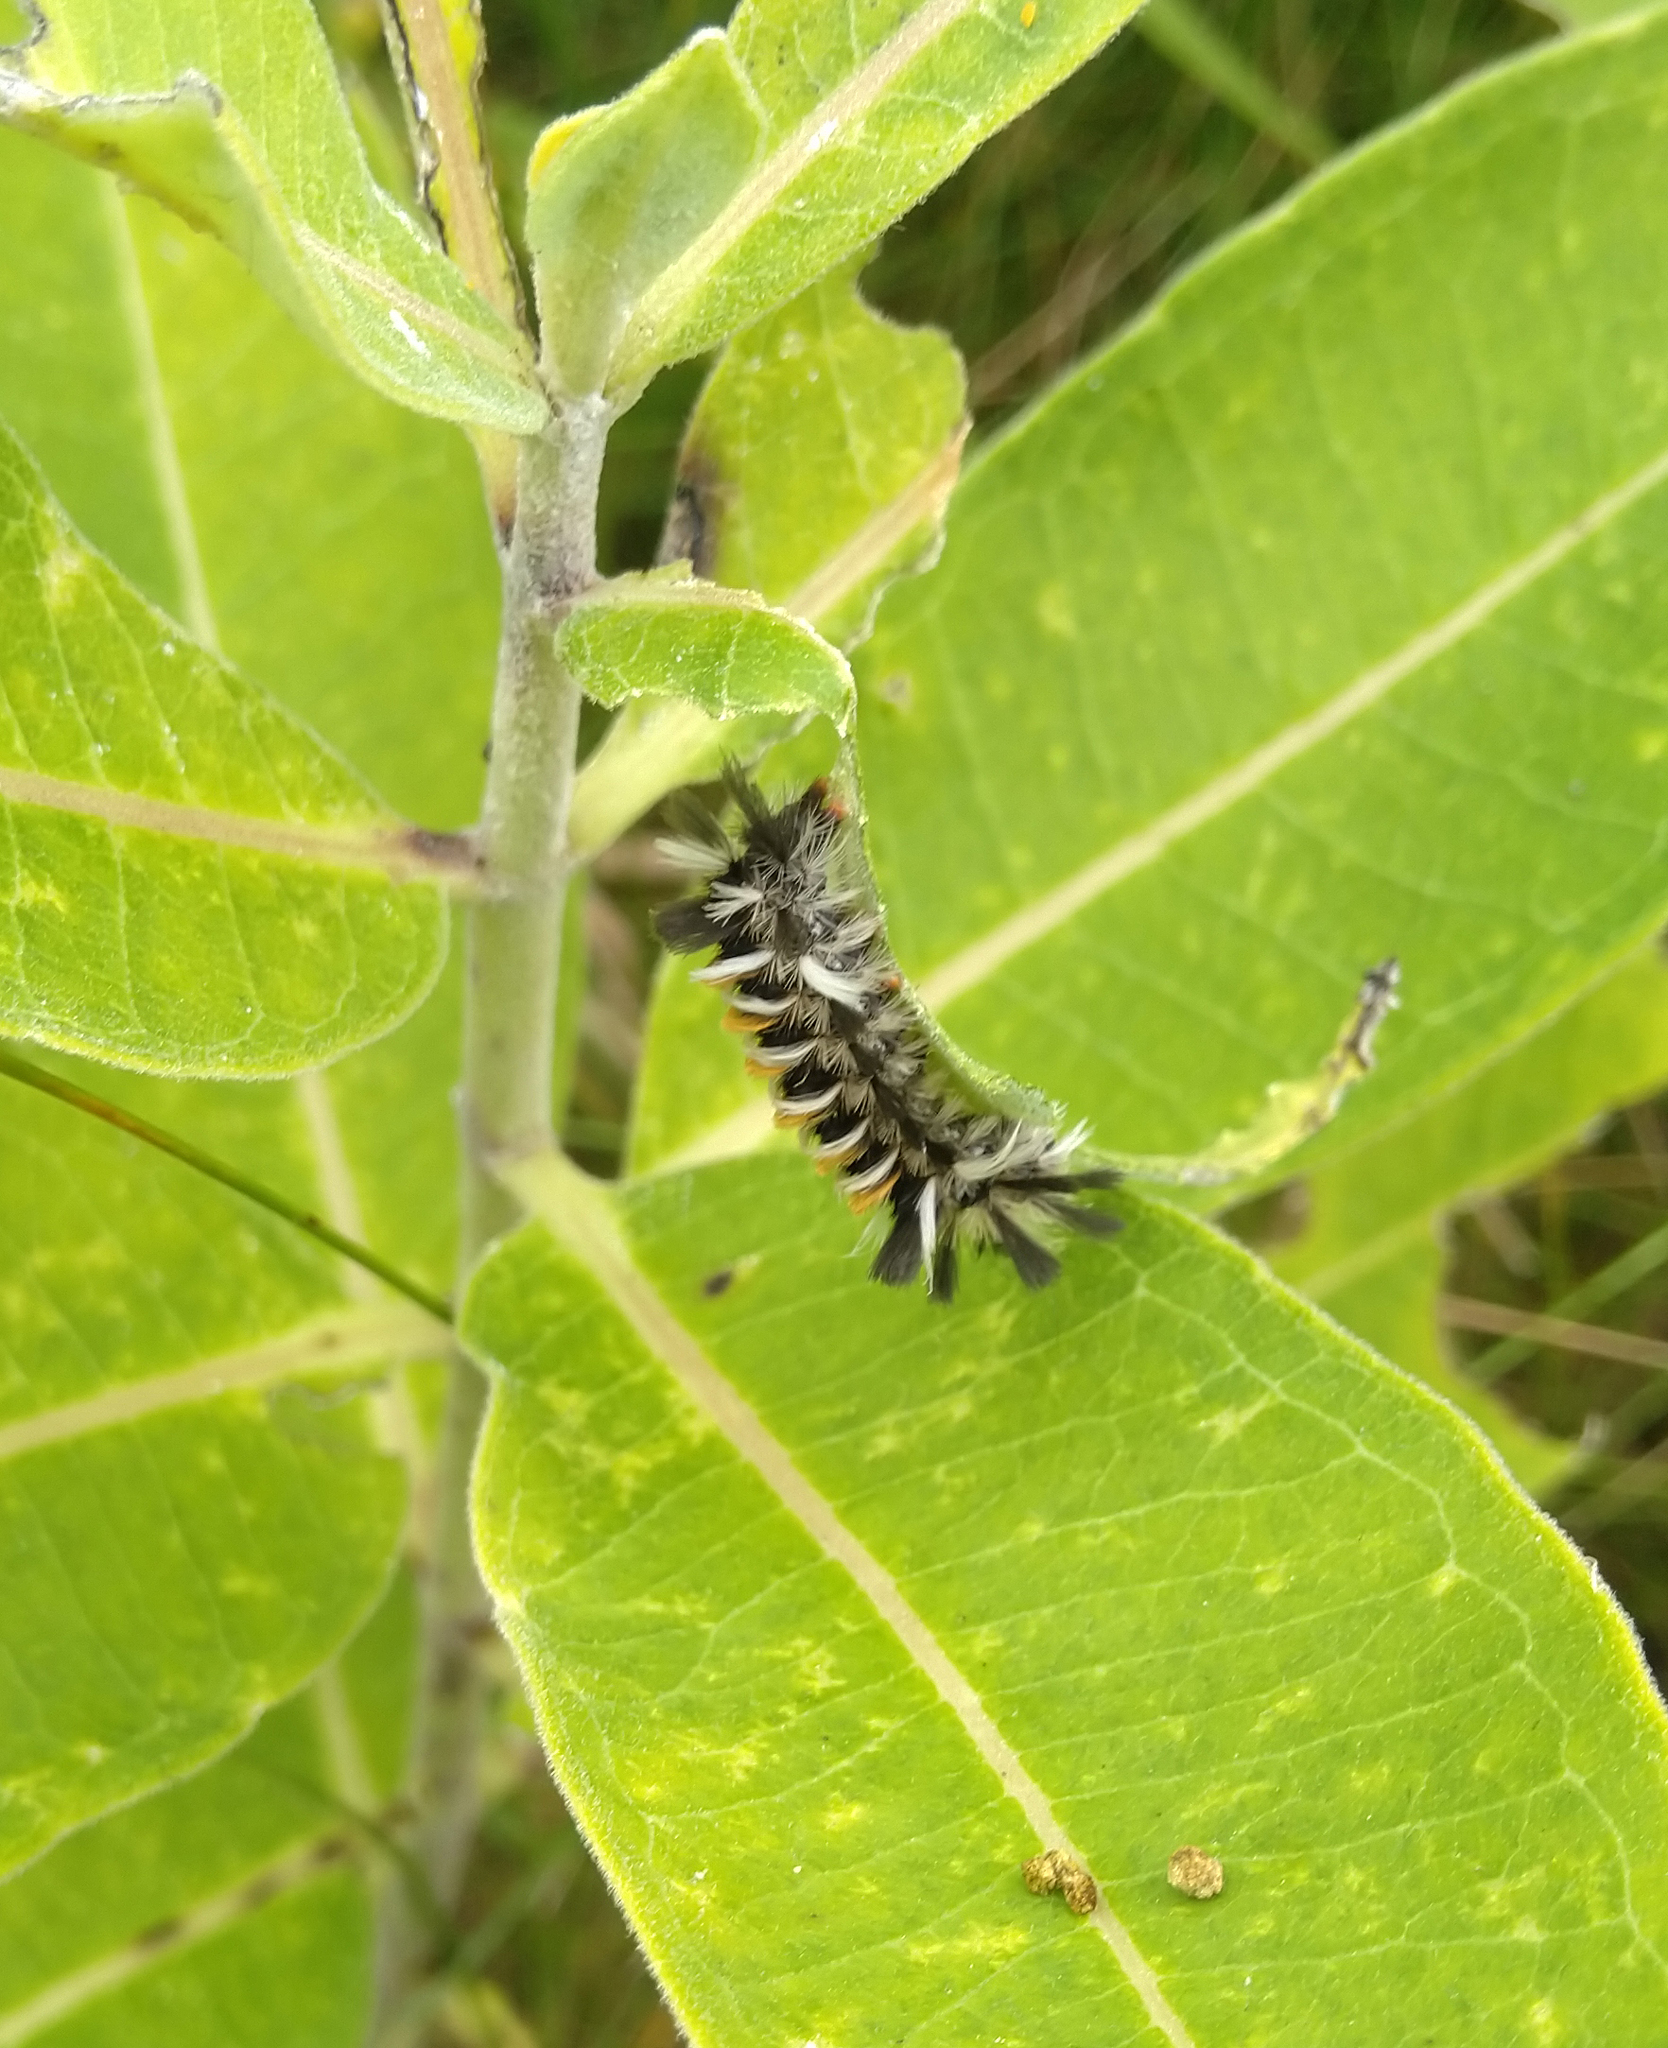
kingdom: Animalia
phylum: Arthropoda
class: Insecta
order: Lepidoptera
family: Erebidae
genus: Euchaetes
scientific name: Euchaetes egle
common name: Milkweed tussock moth
